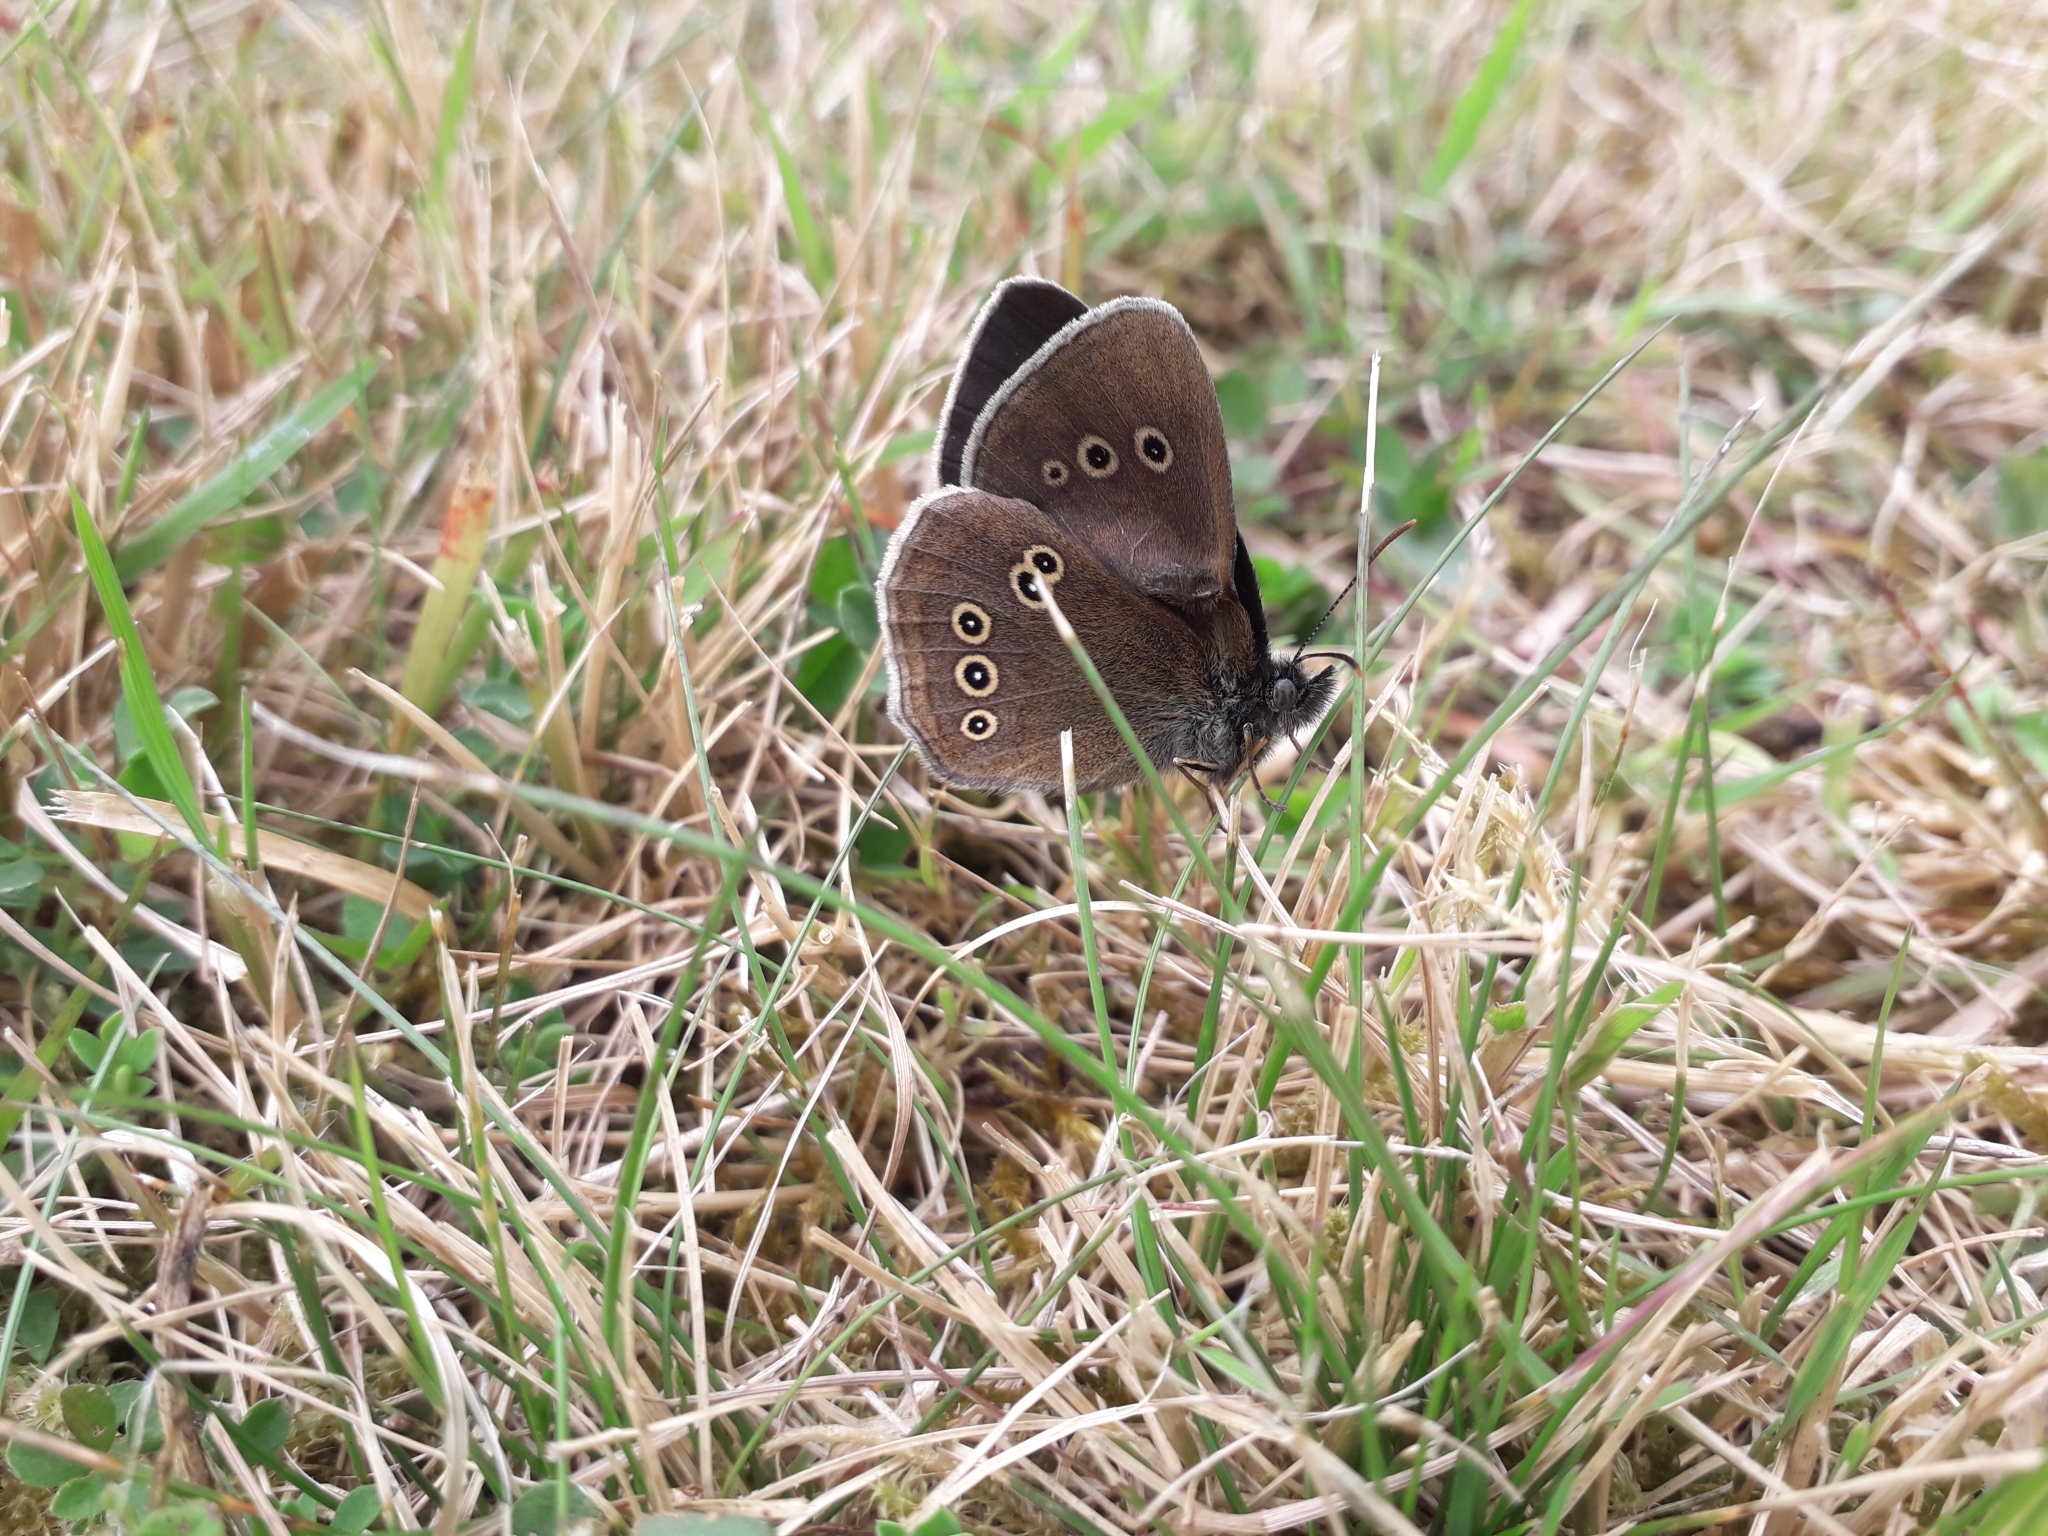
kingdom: Animalia
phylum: Arthropoda
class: Insecta
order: Lepidoptera
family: Nymphalidae
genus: Aphantopus
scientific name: Aphantopus hyperantus
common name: Ringlet
